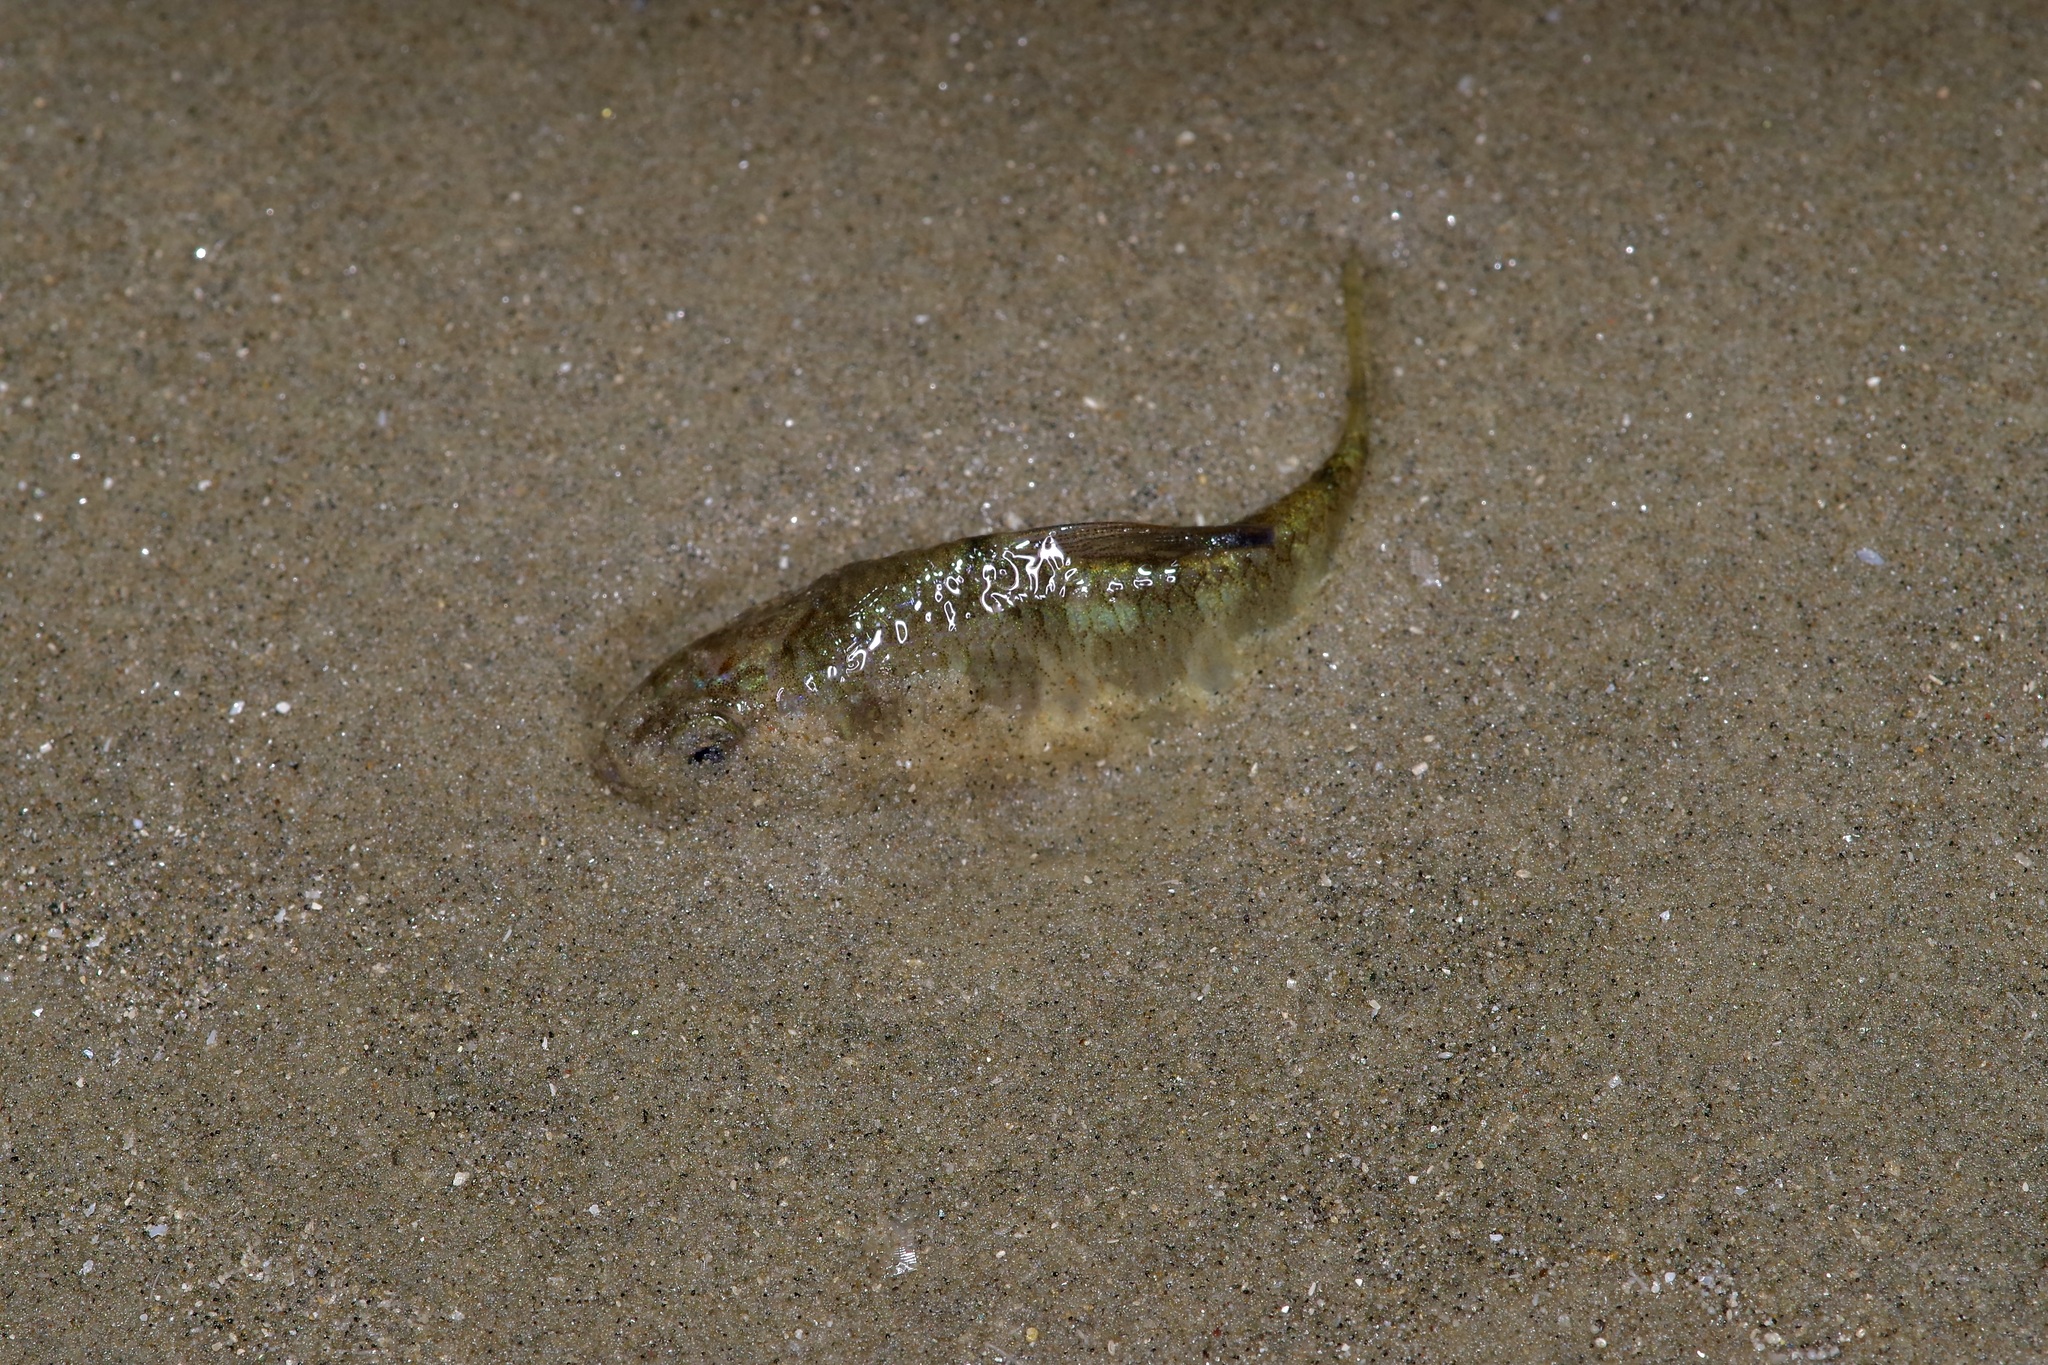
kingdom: Animalia
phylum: Chordata
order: Cyprinodontiformes
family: Cyprinodontidae
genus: Cyprinodon
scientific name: Cyprinodon variegatus
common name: Sheepshead minnow
